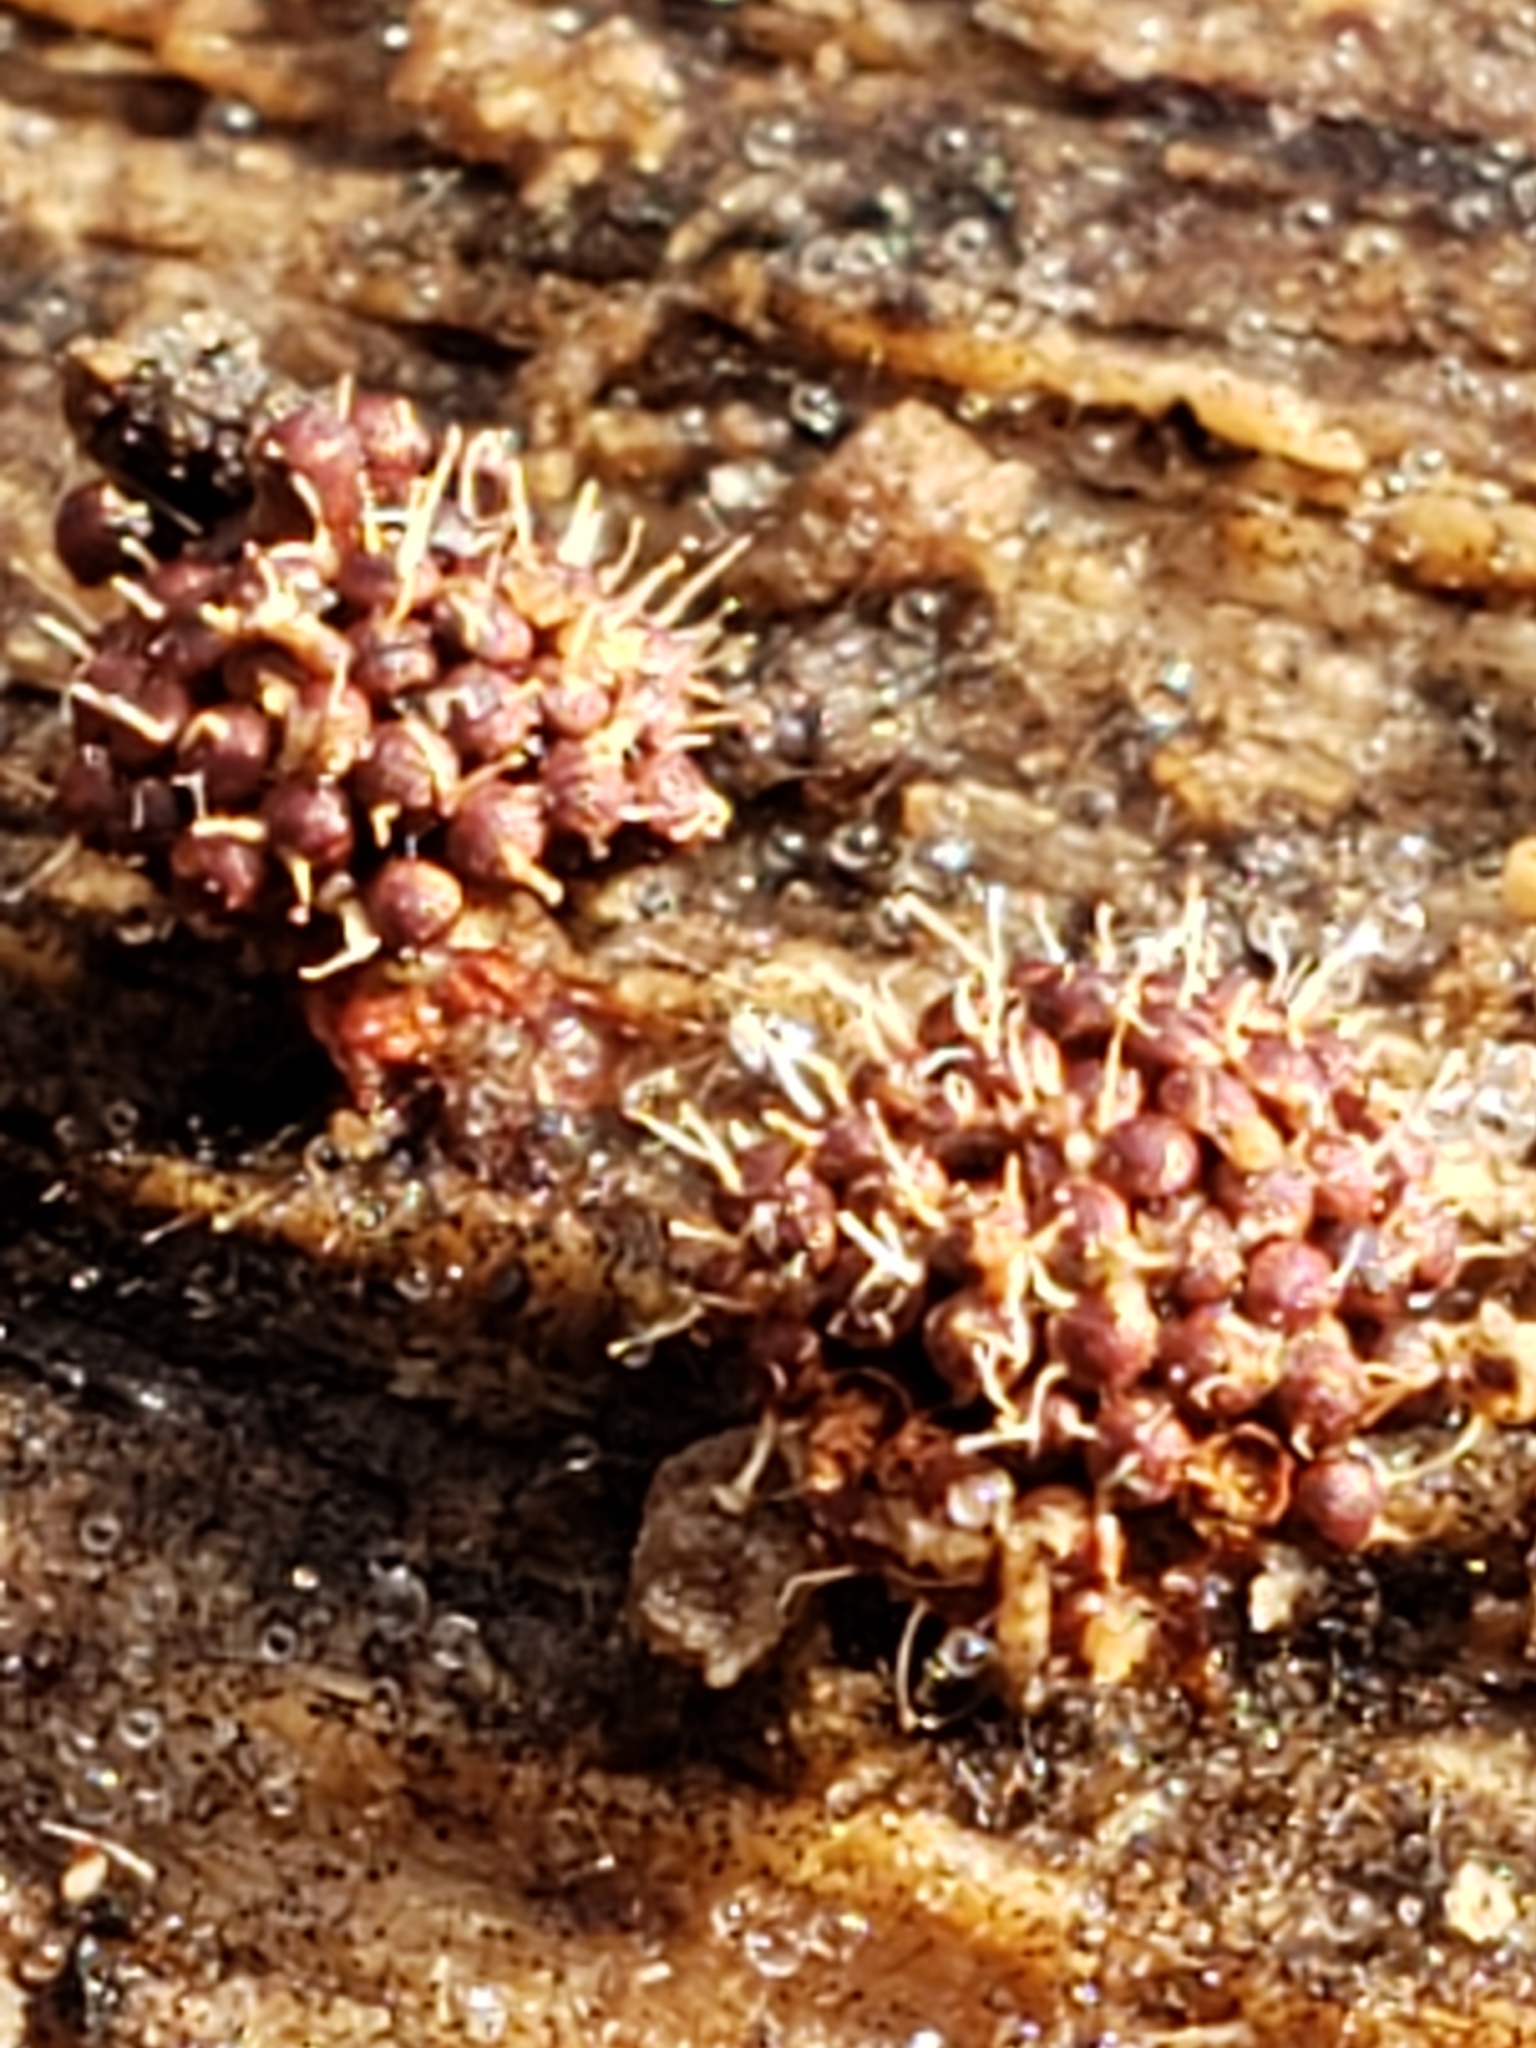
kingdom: Fungi
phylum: Ascomycota
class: Sordariomycetes
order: Hypocreales
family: Ophiocordycipitaceae
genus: Polycephalomyces
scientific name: Polycephalomyces tomentosus
